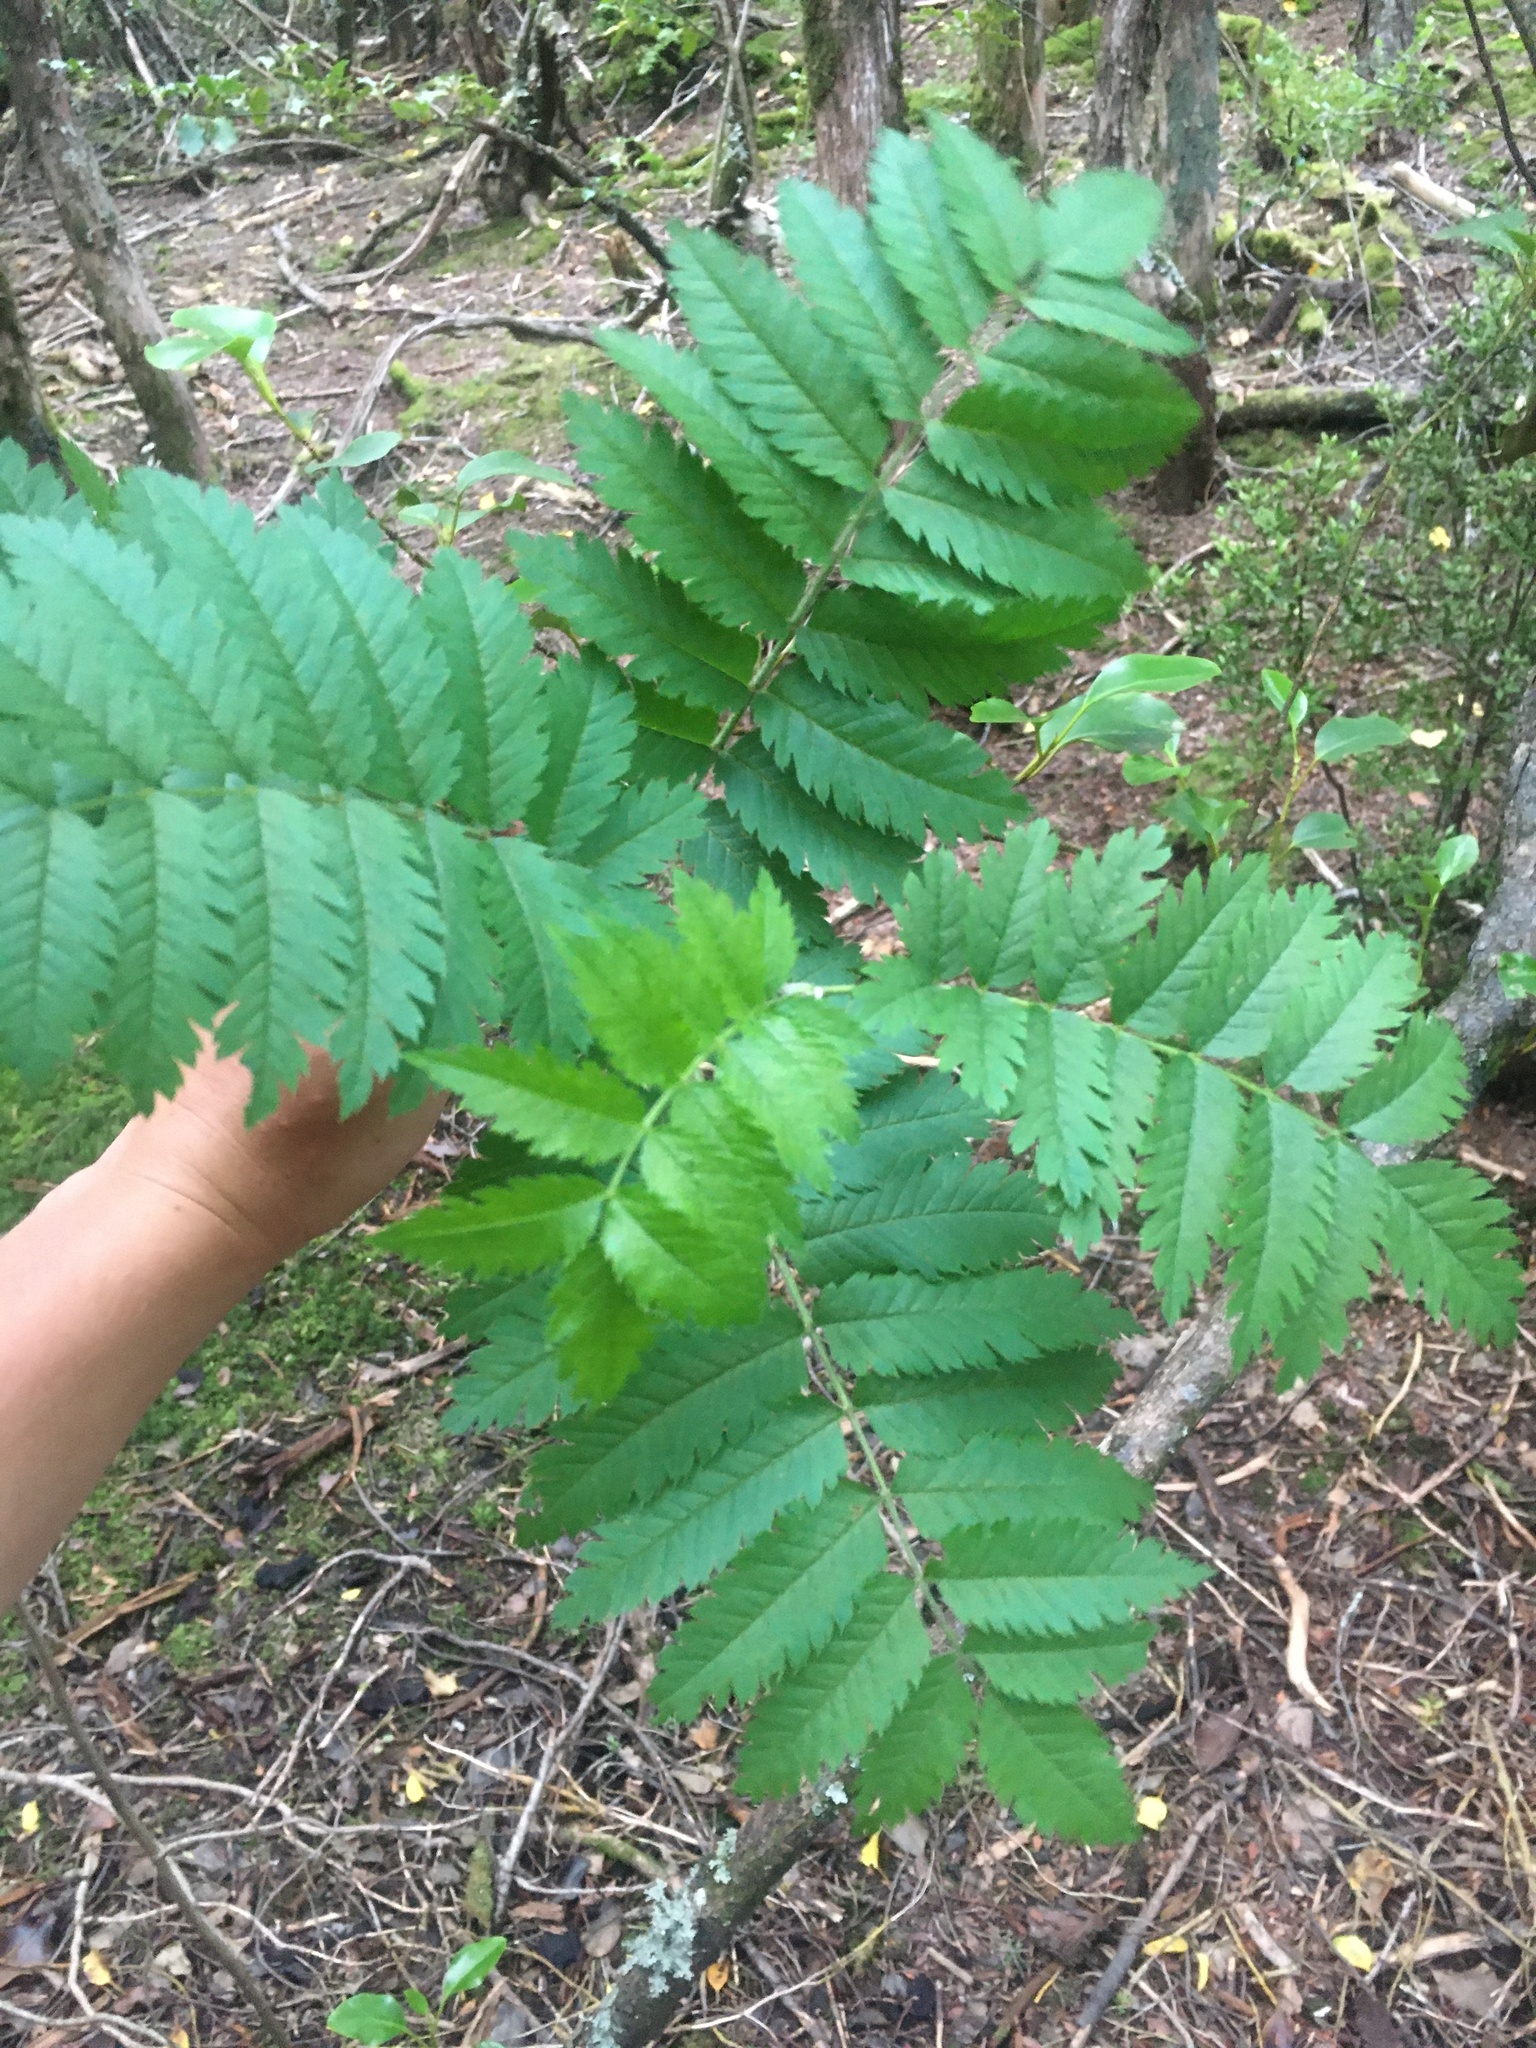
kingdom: Plantae
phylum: Tracheophyta
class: Magnoliopsida
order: Rosales
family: Rosaceae
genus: Sorbus
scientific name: Sorbus aucuparia
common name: Rowan
